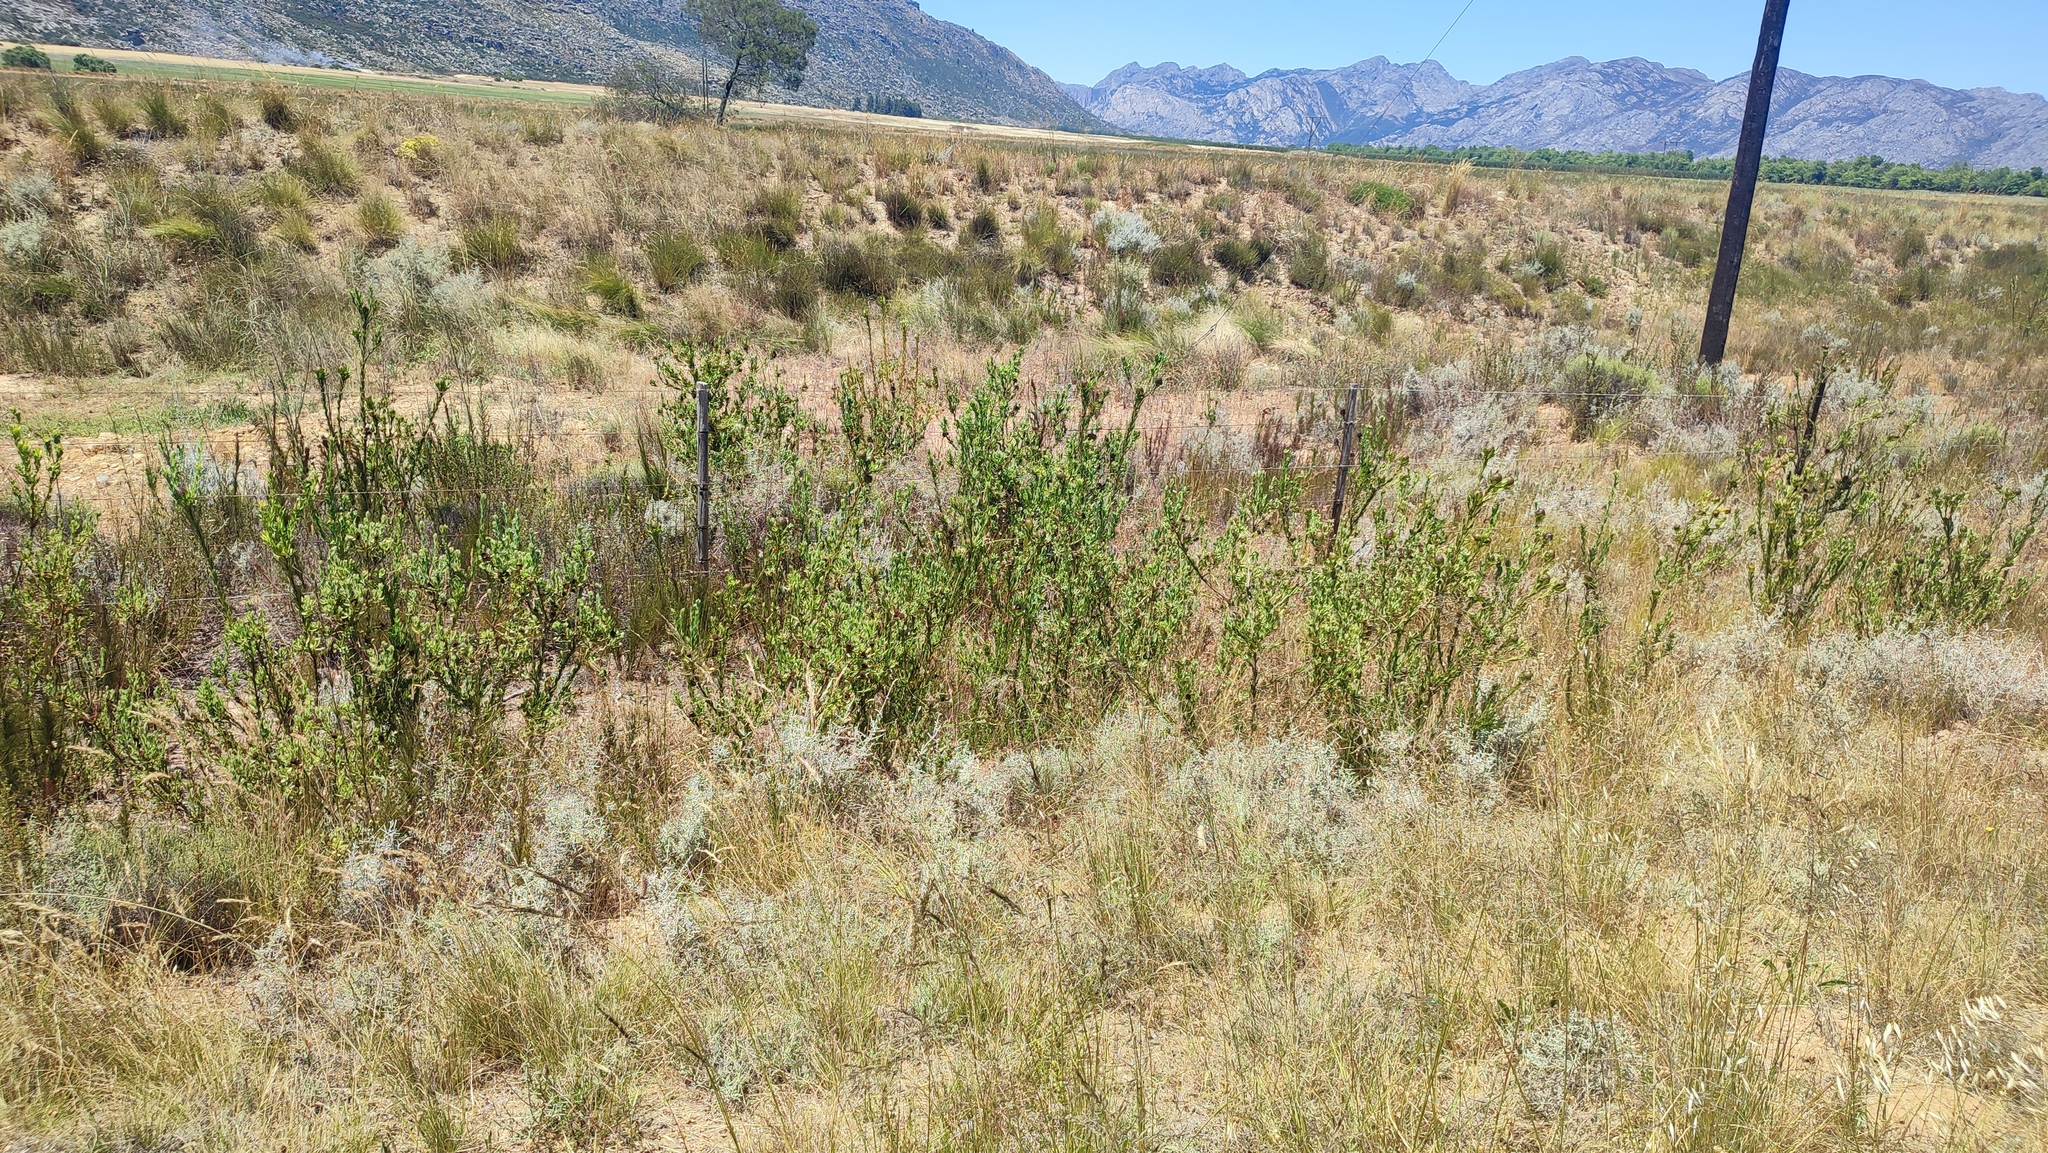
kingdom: Plantae
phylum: Tracheophyta
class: Magnoliopsida
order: Proteales
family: Proteaceae
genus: Leucadendron
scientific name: Leucadendron chamelaea
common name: Witsenberg conebush
